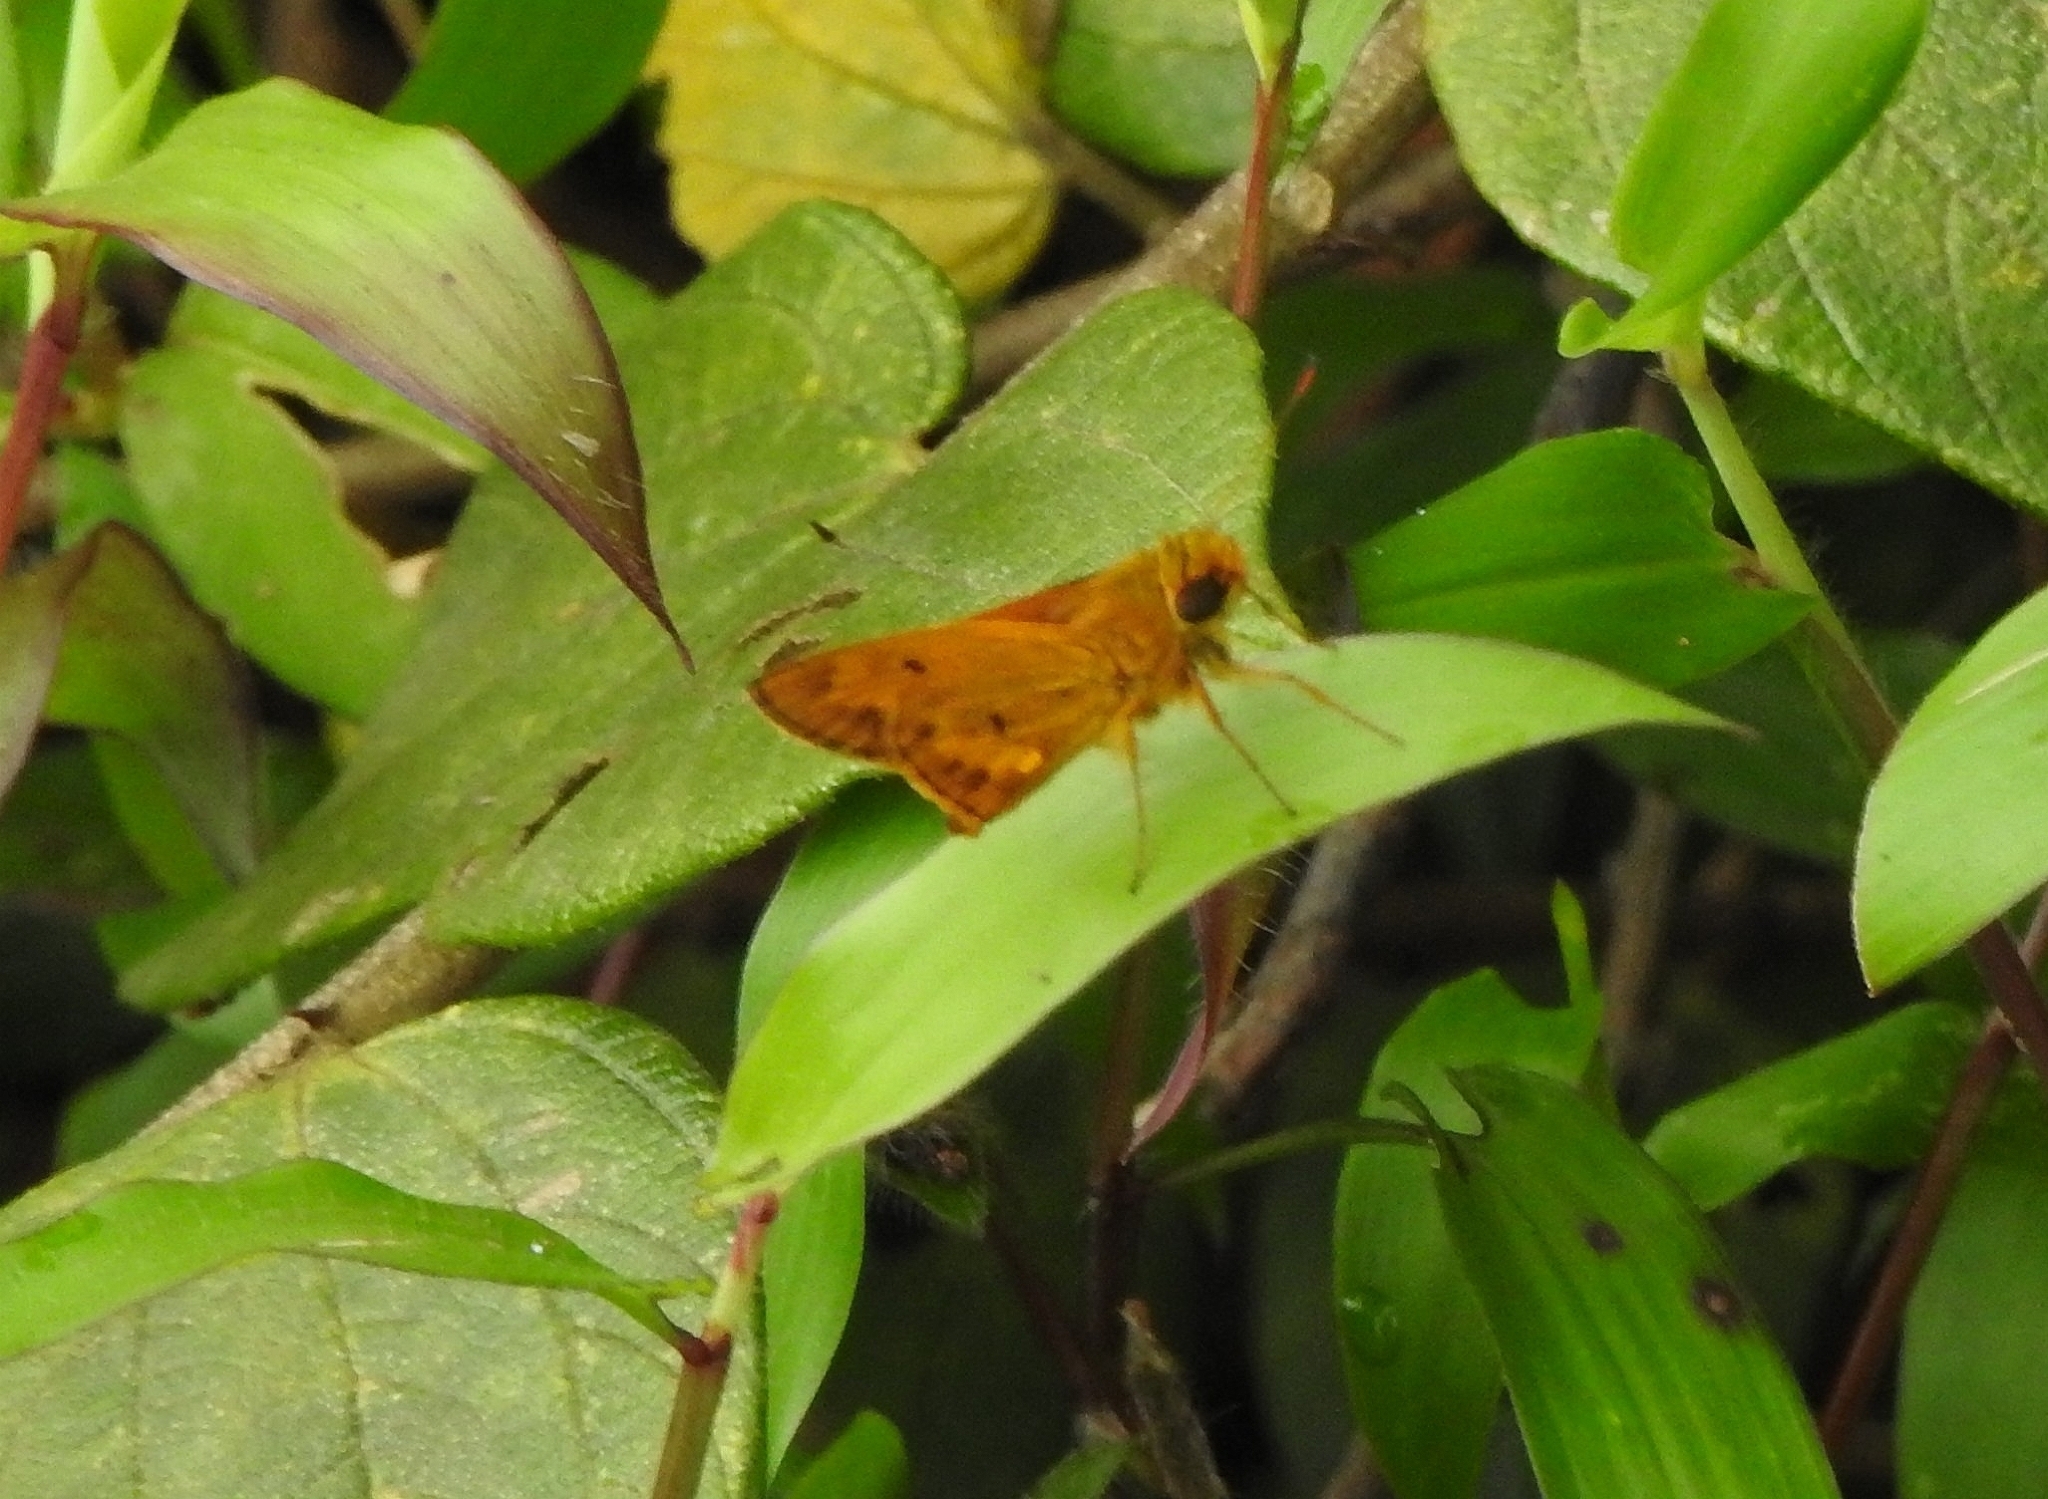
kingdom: Animalia
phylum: Arthropoda
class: Insecta
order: Lepidoptera
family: Hesperiidae
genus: Oriens
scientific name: Oriens goloides
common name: Smaller dartlet
